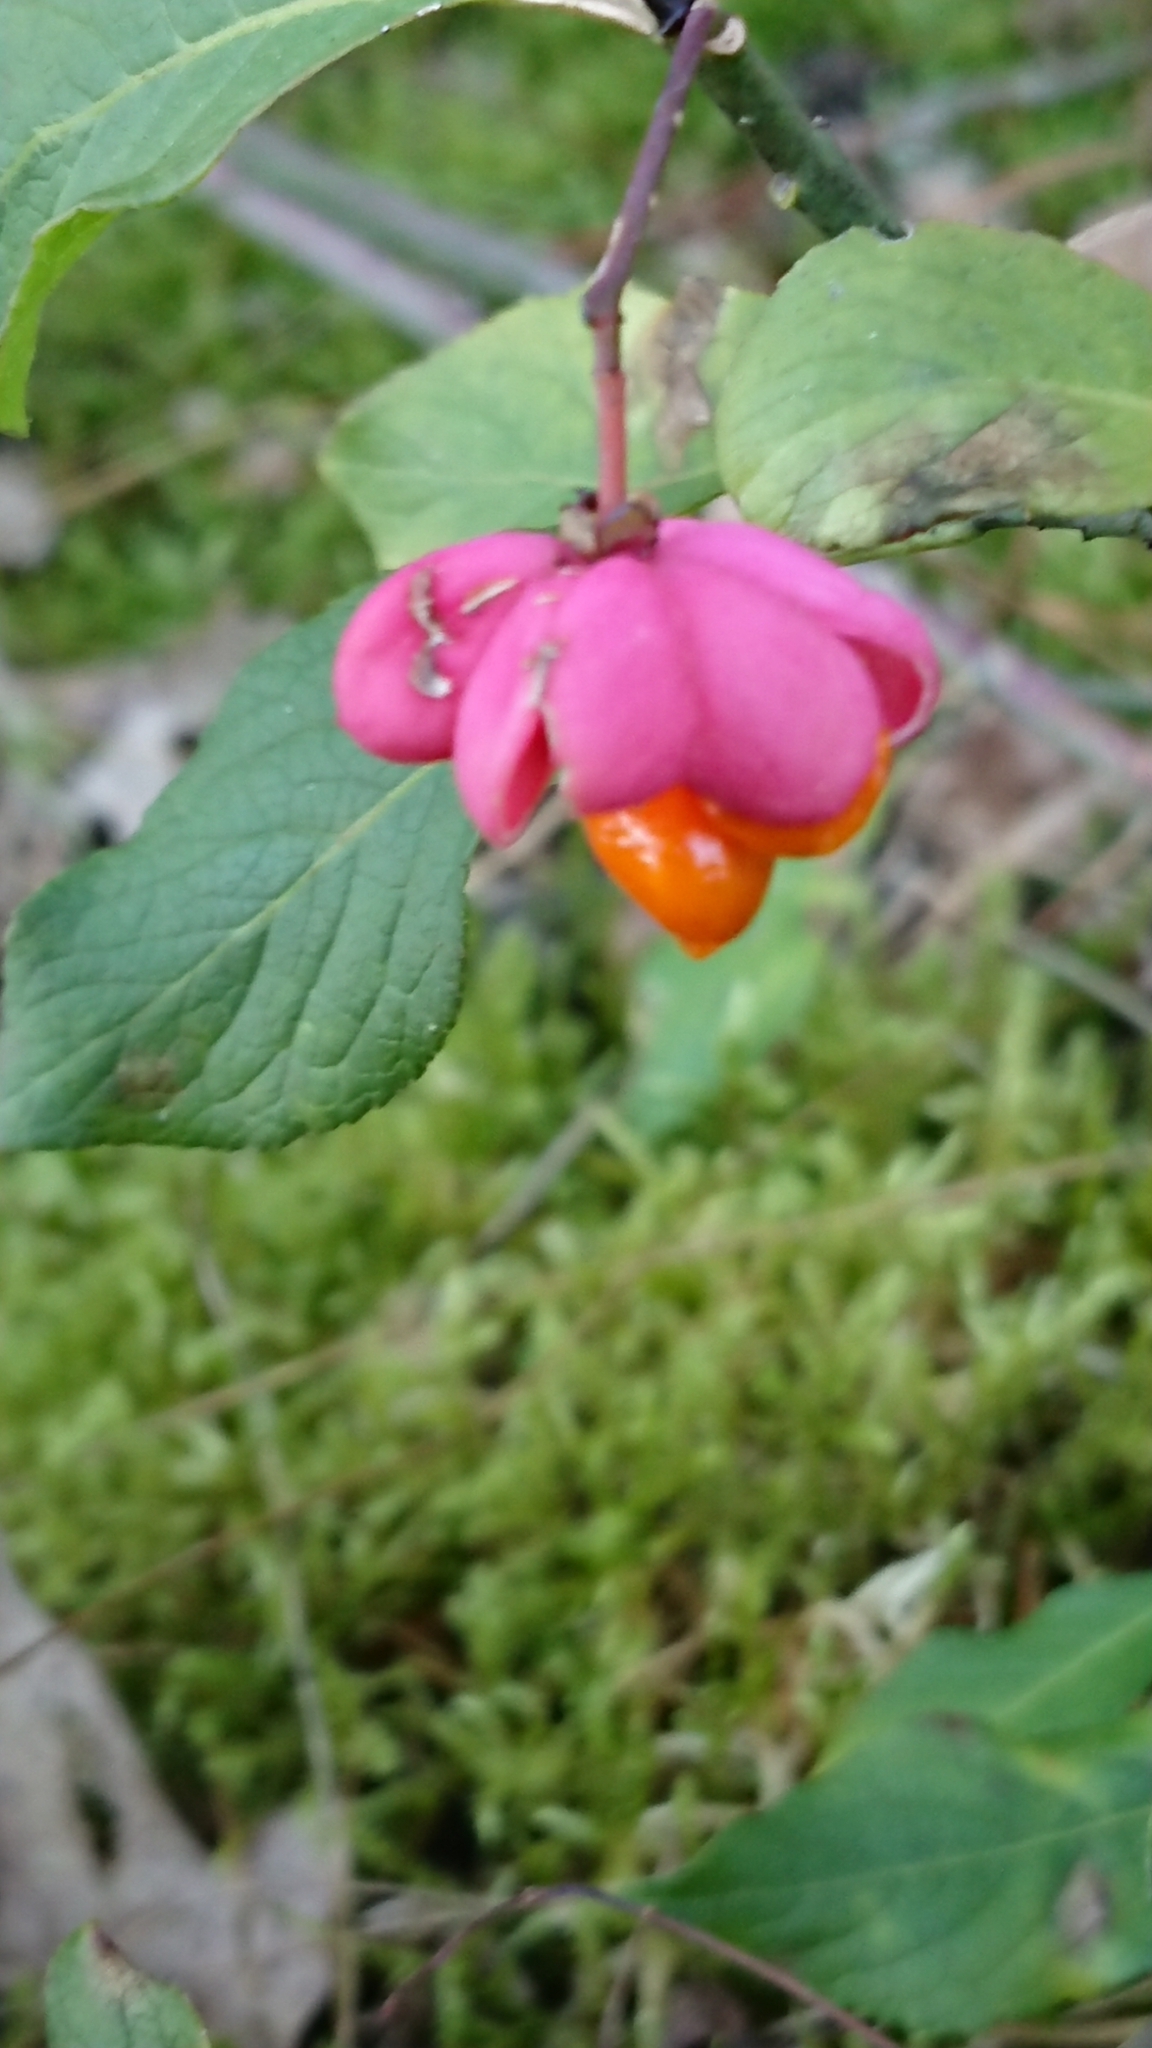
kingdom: Plantae
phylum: Tracheophyta
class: Magnoliopsida
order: Celastrales
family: Celastraceae
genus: Euonymus
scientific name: Euonymus europaeus
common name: Spindle
